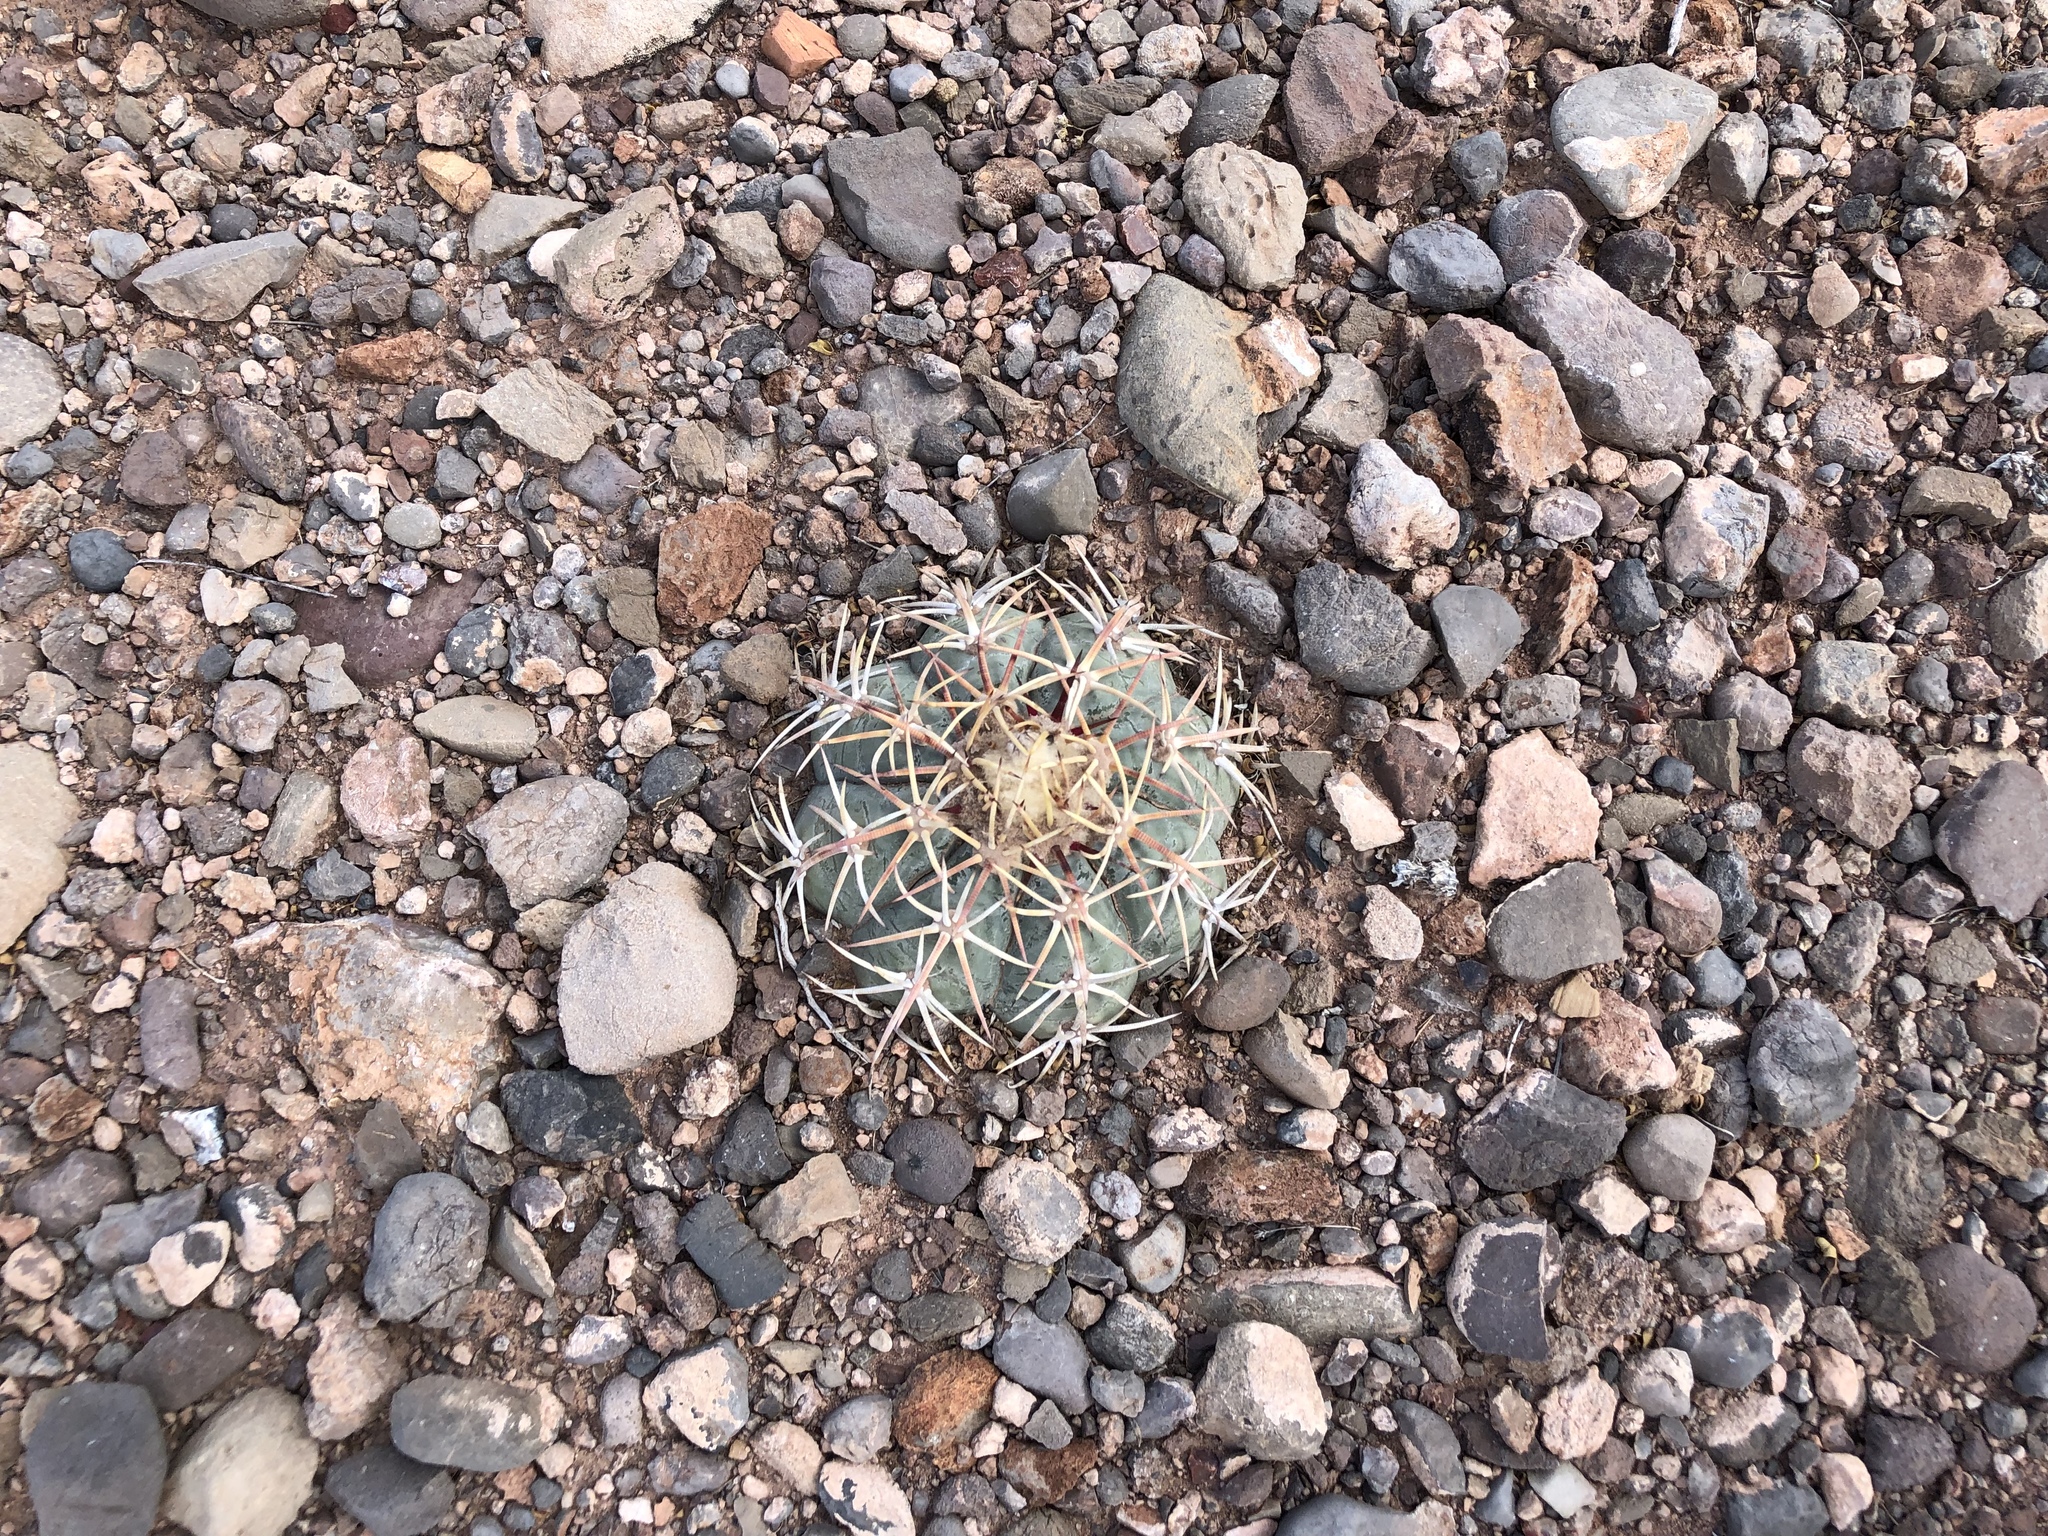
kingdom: Plantae
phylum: Tracheophyta
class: Magnoliopsida
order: Caryophyllales
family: Cactaceae
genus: Echinocactus
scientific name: Echinocactus horizonthalonius
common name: Devilshead
